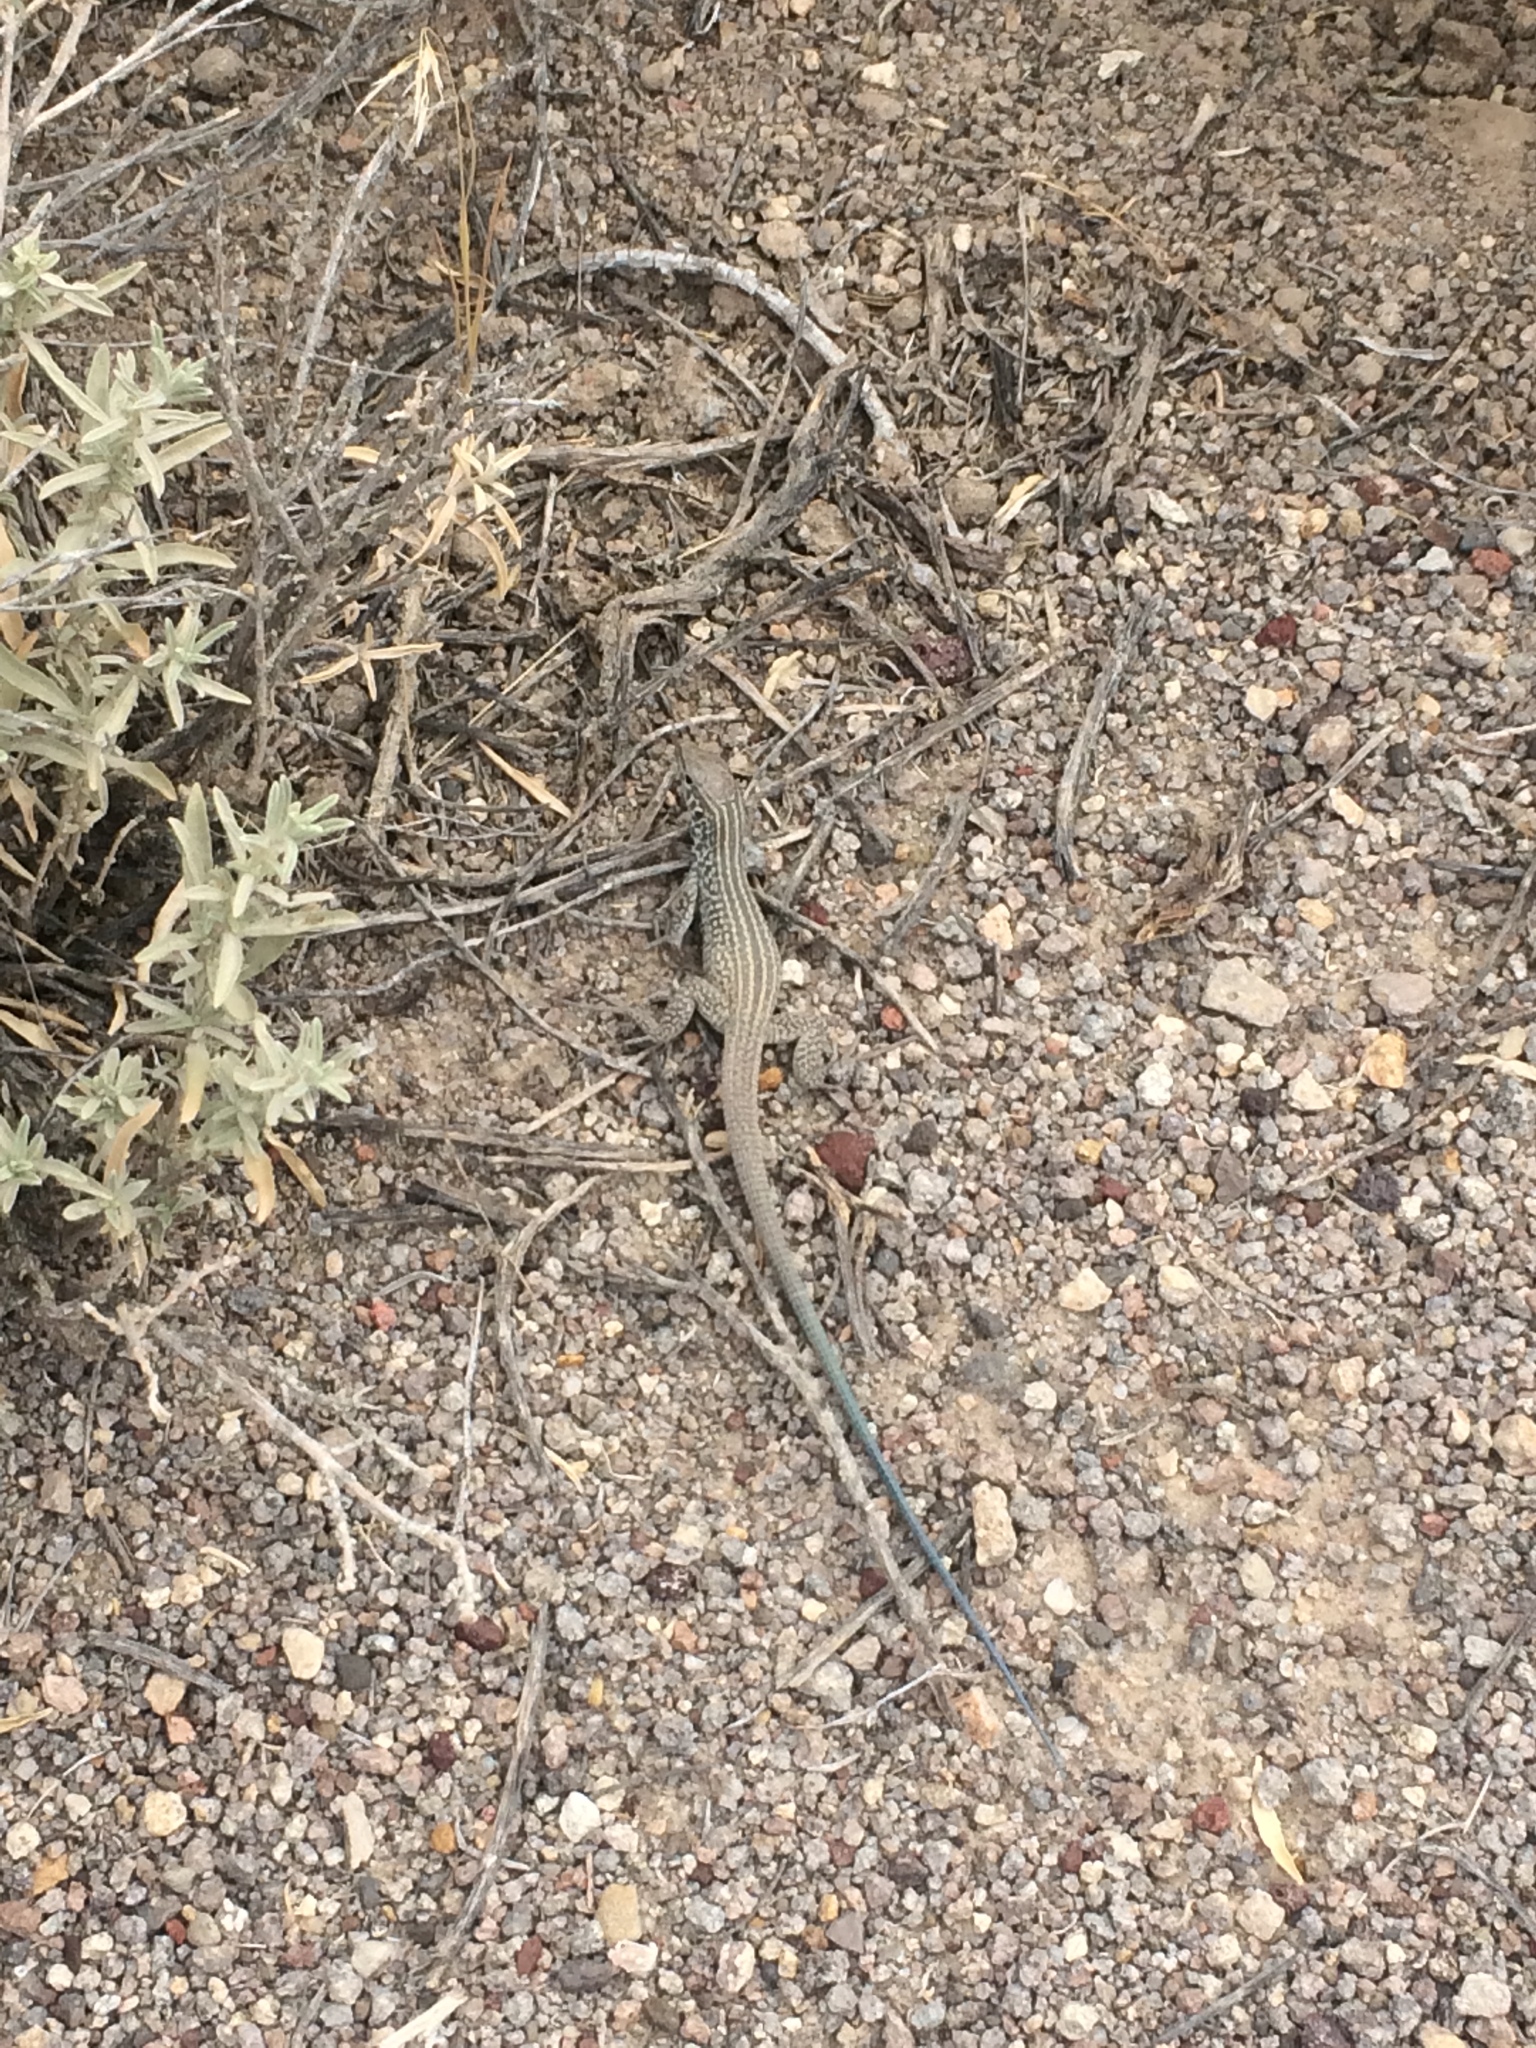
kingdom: Animalia
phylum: Chordata
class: Squamata
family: Teiidae
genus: Aspidoscelis
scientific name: Aspidoscelis tigris
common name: Tiger whiptail
